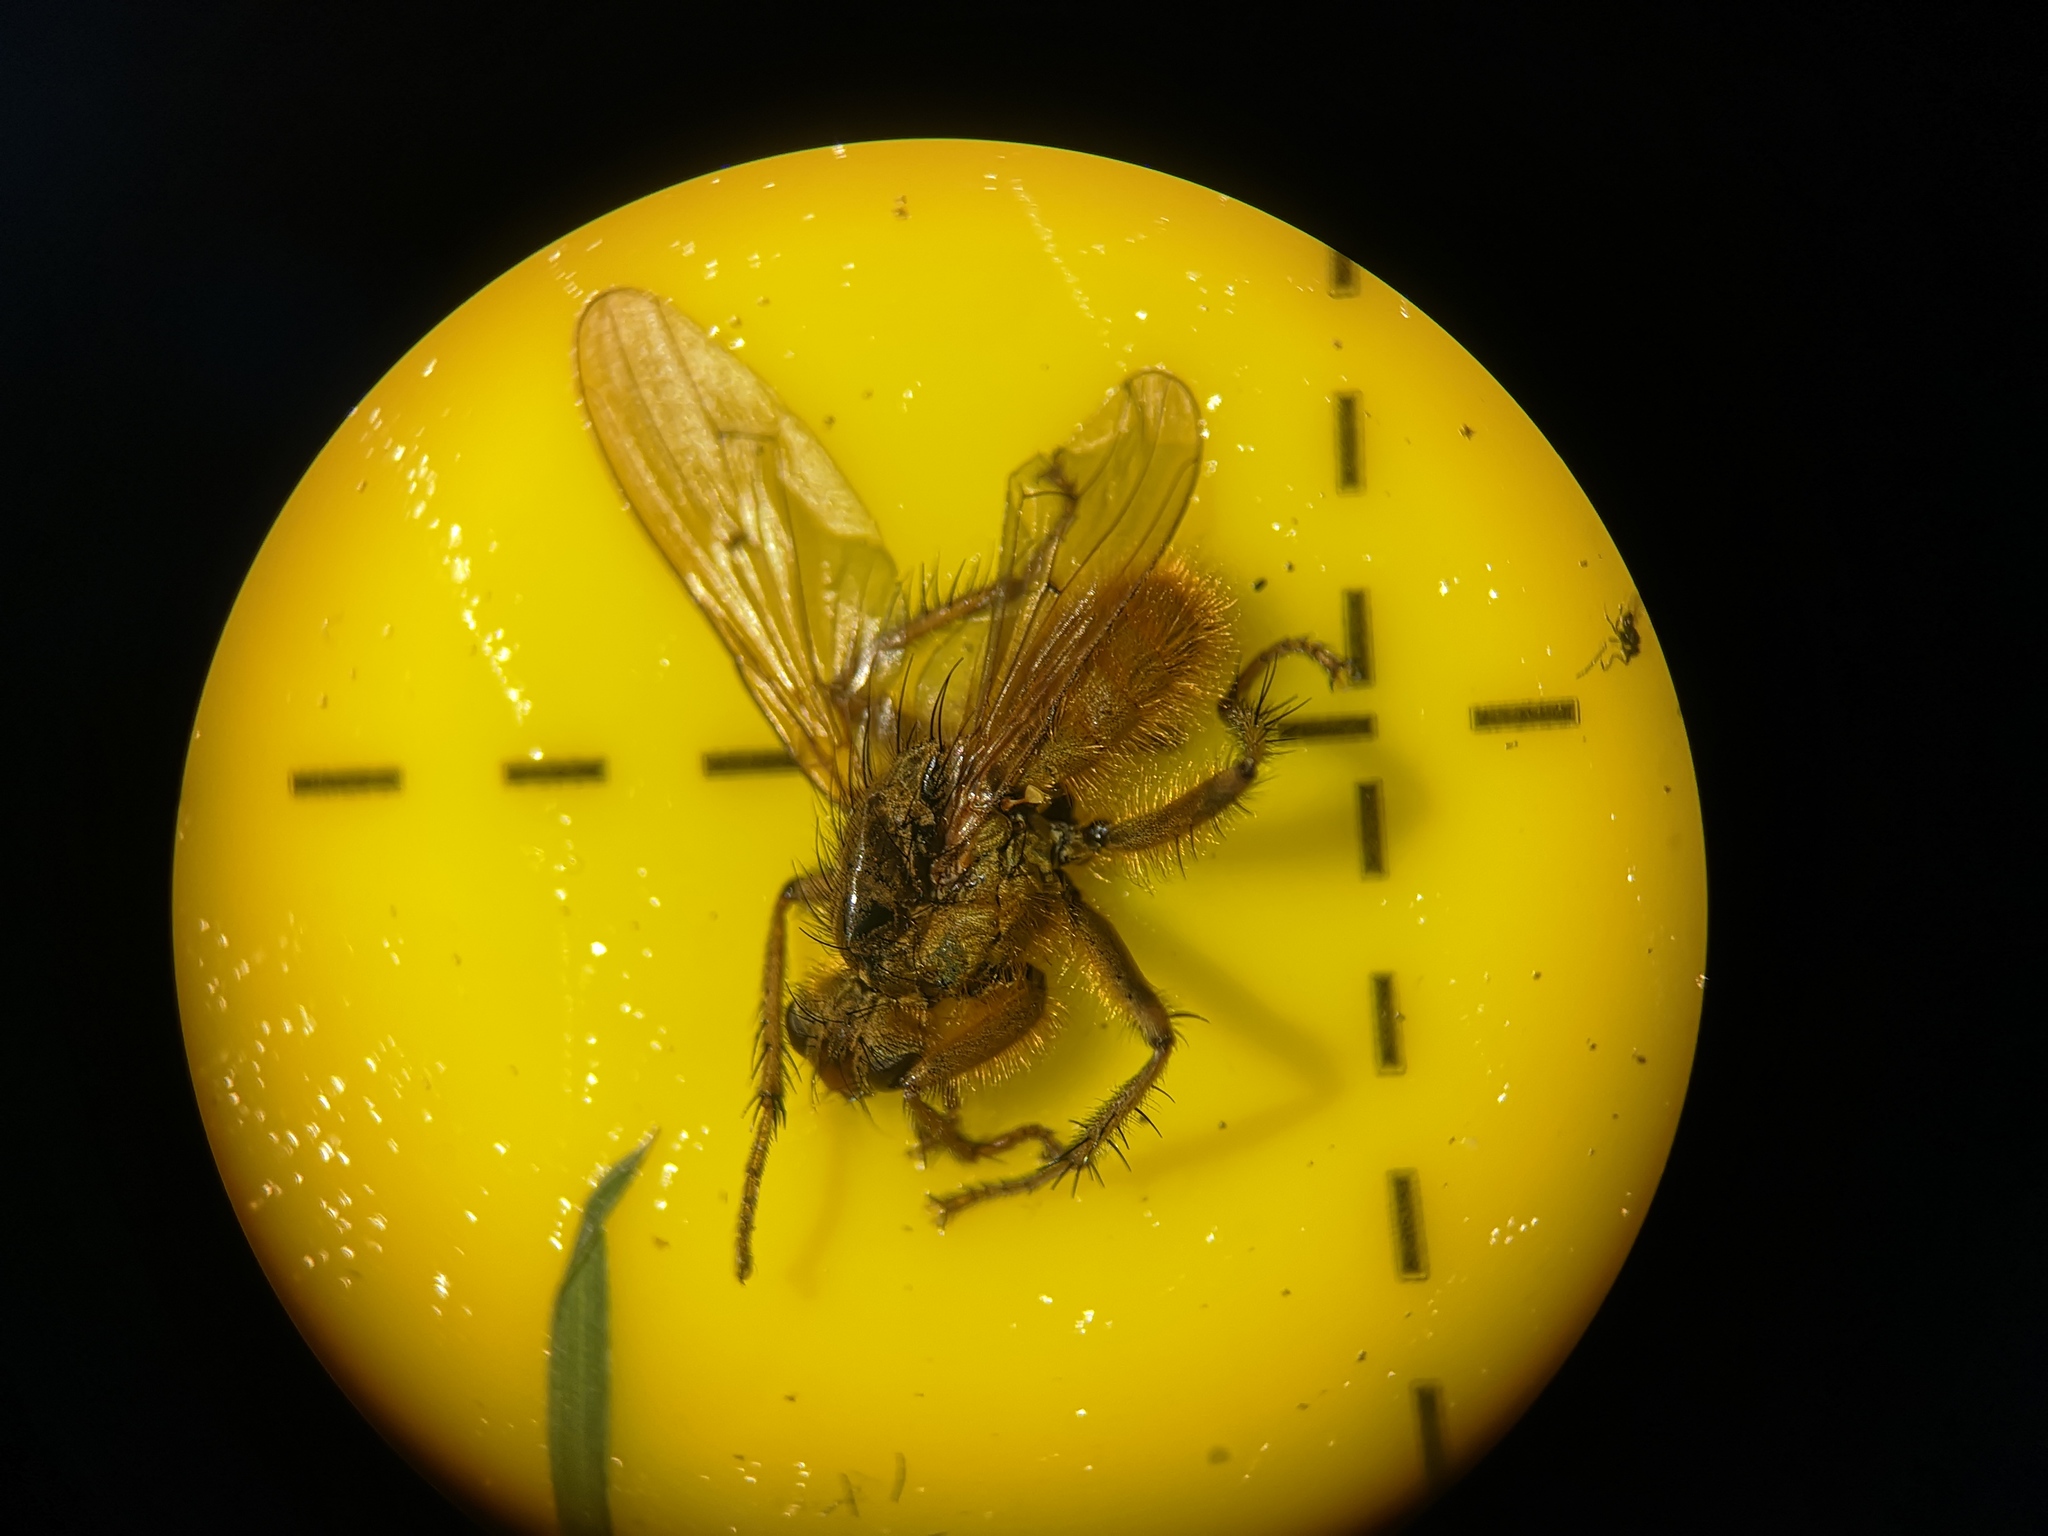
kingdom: Animalia
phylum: Arthropoda
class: Insecta
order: Diptera
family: Scathophagidae
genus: Scathophaga
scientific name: Scathophaga stercoraria
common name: Yellow dung fly
